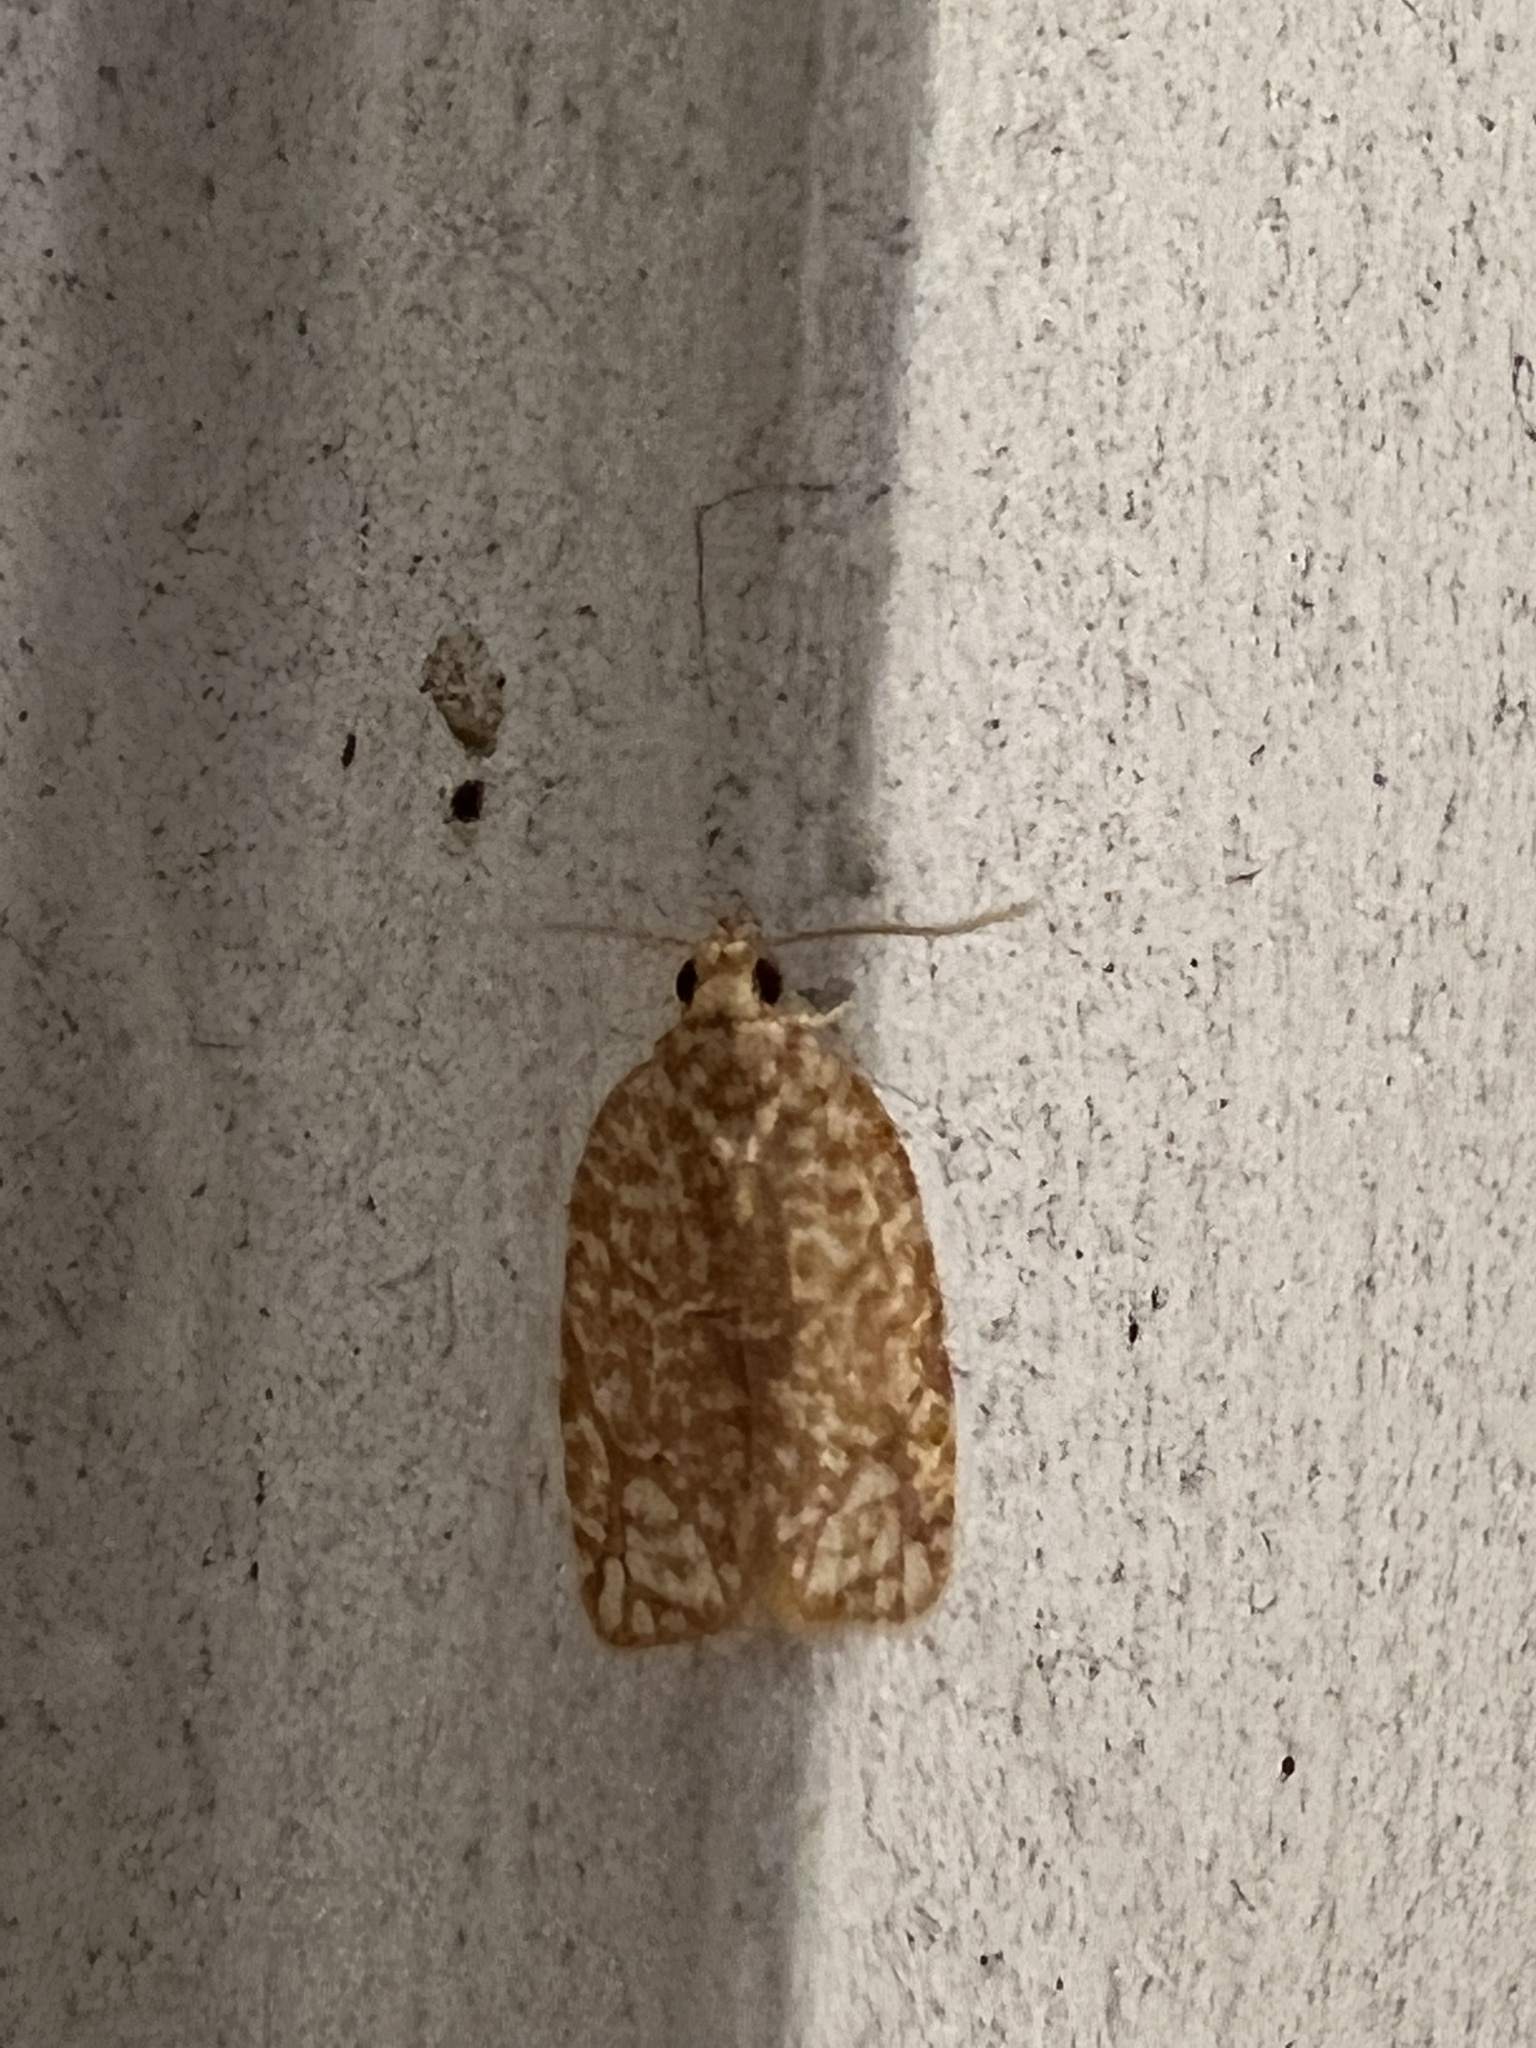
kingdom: Animalia
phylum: Arthropoda
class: Insecta
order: Lepidoptera
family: Tortricidae
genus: Argyrotaenia
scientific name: Argyrotaenia quercifoliana
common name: Yellow-winged oak leafroller moth
